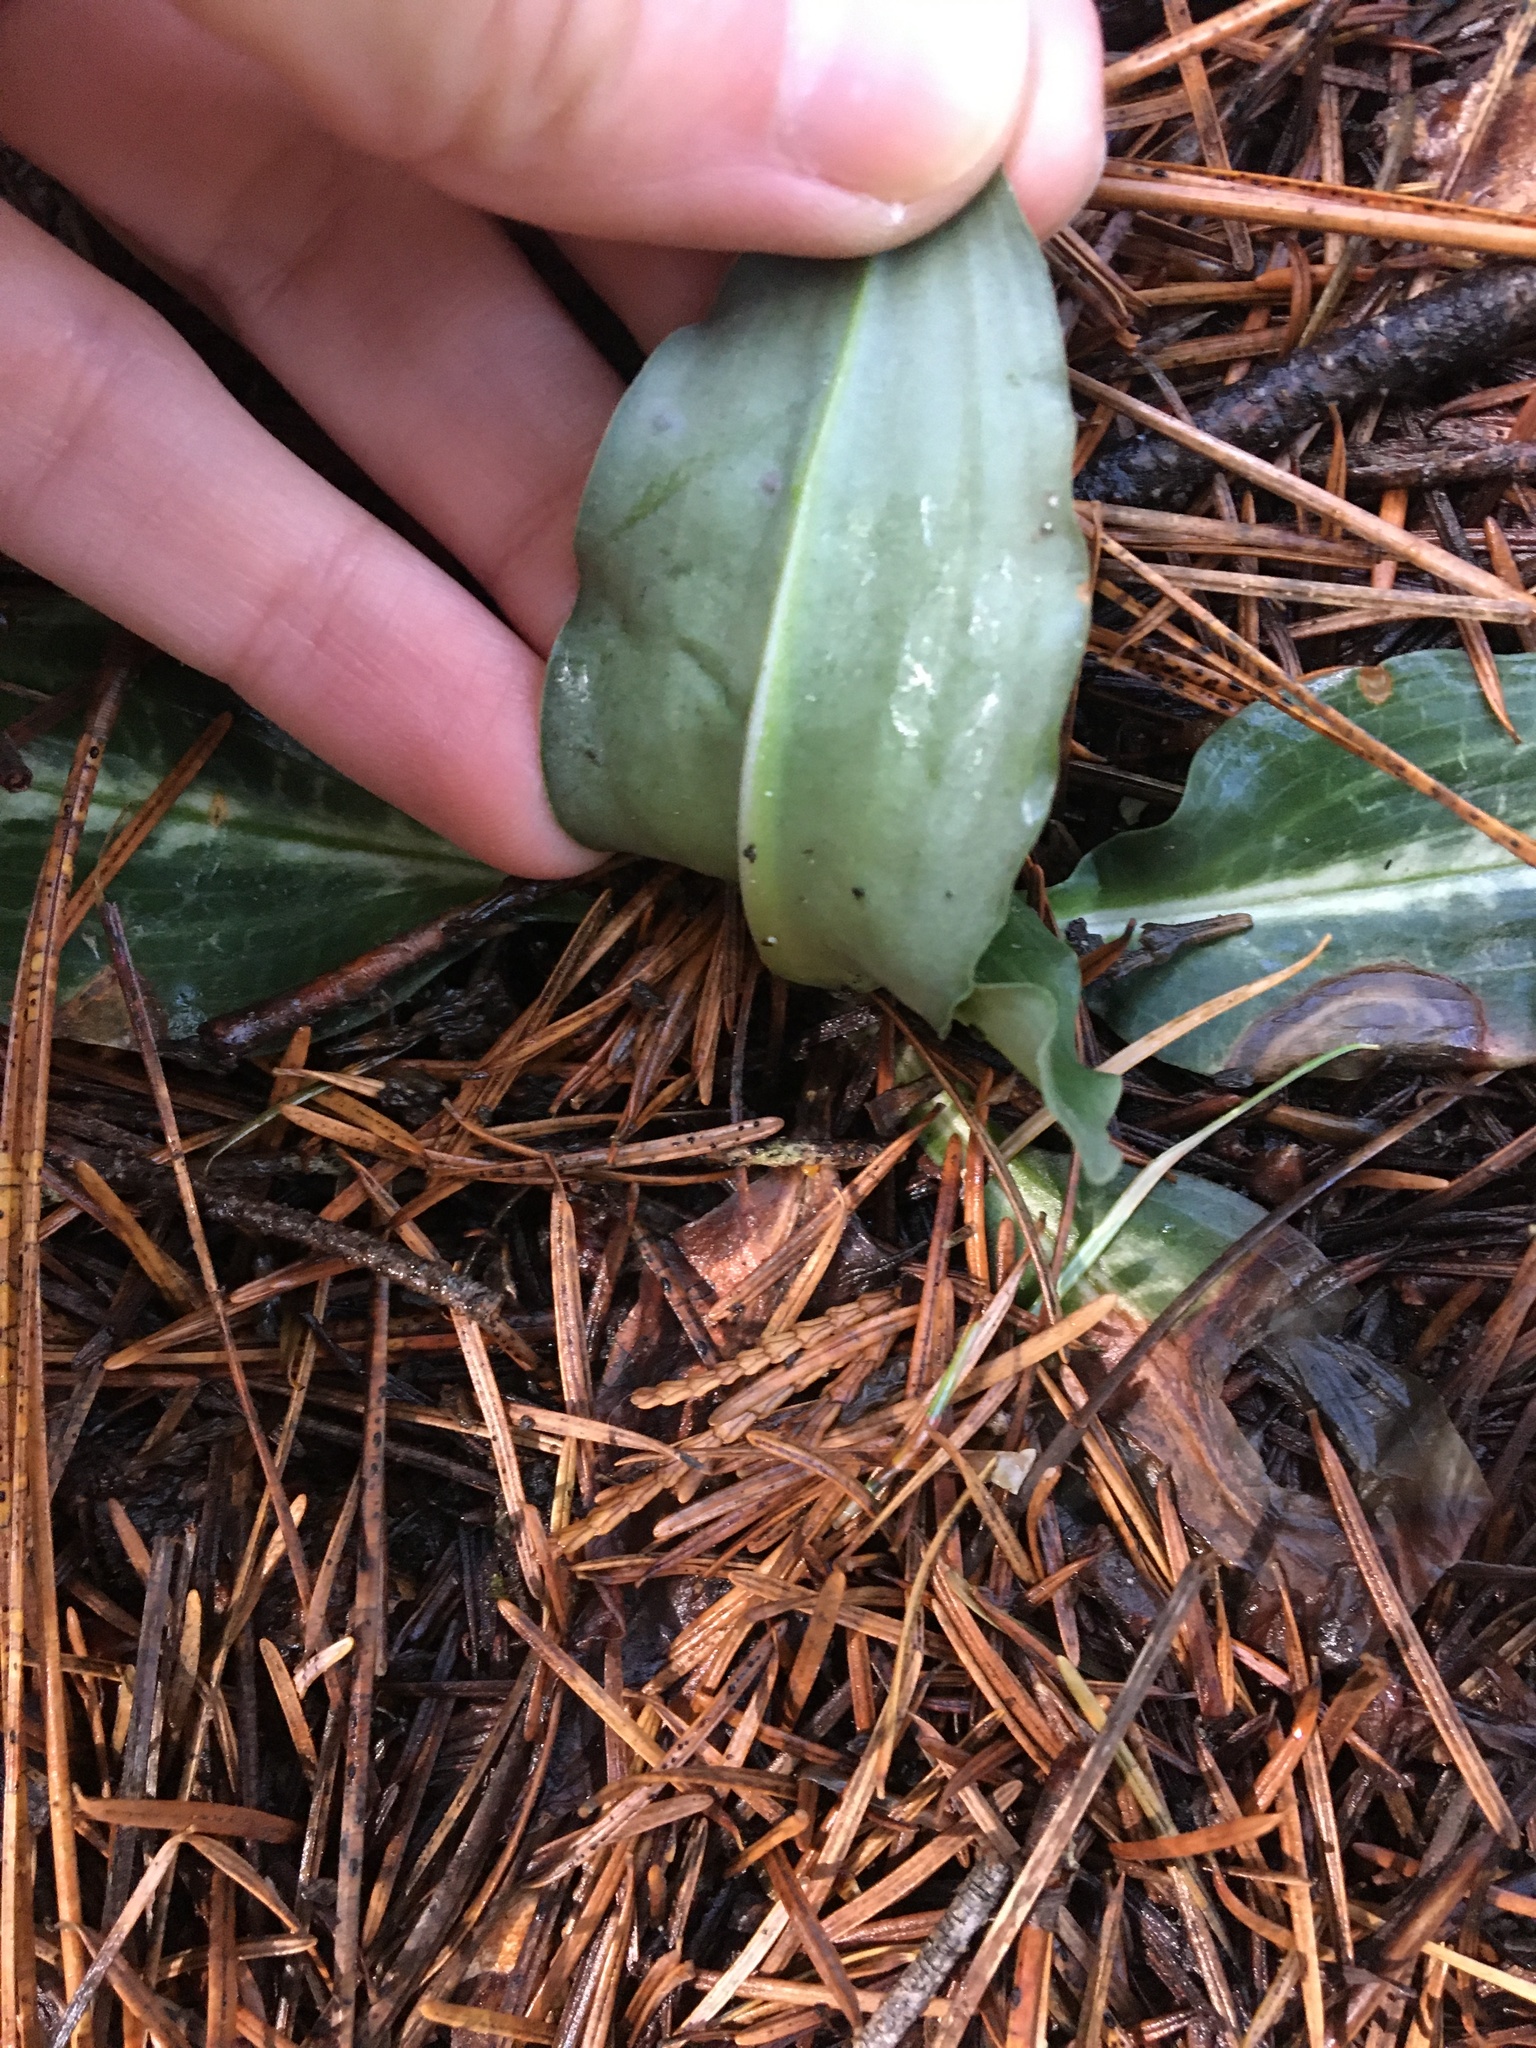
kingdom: Plantae
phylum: Tracheophyta
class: Liliopsida
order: Asparagales
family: Orchidaceae
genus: Goodyera
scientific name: Goodyera oblongifolia
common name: Giant rattlesnake-plantain
